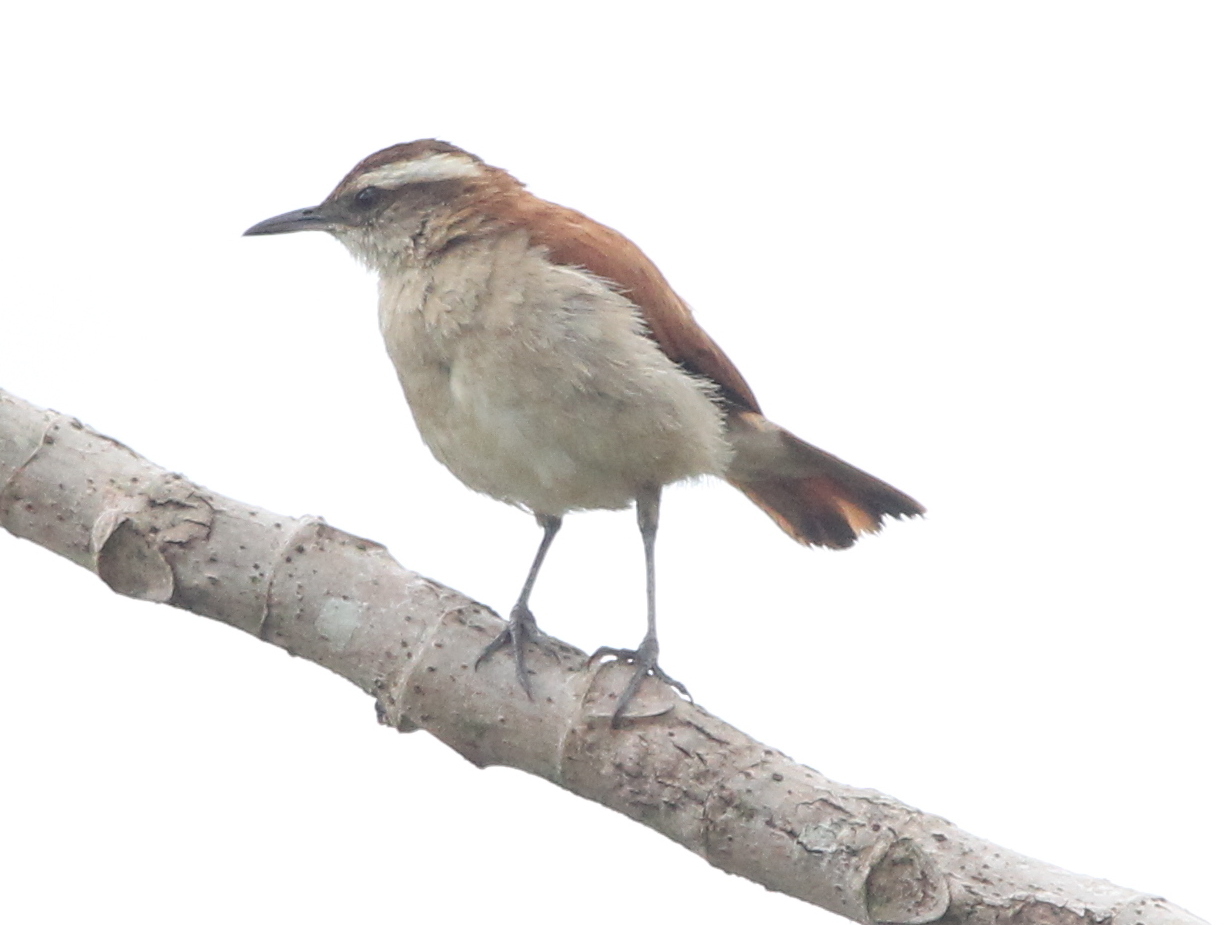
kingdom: Animalia
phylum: Chordata
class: Aves
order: Passeriformes
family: Furnariidae
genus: Furnarius
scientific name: Furnarius figulus
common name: Band-tailed hornero
